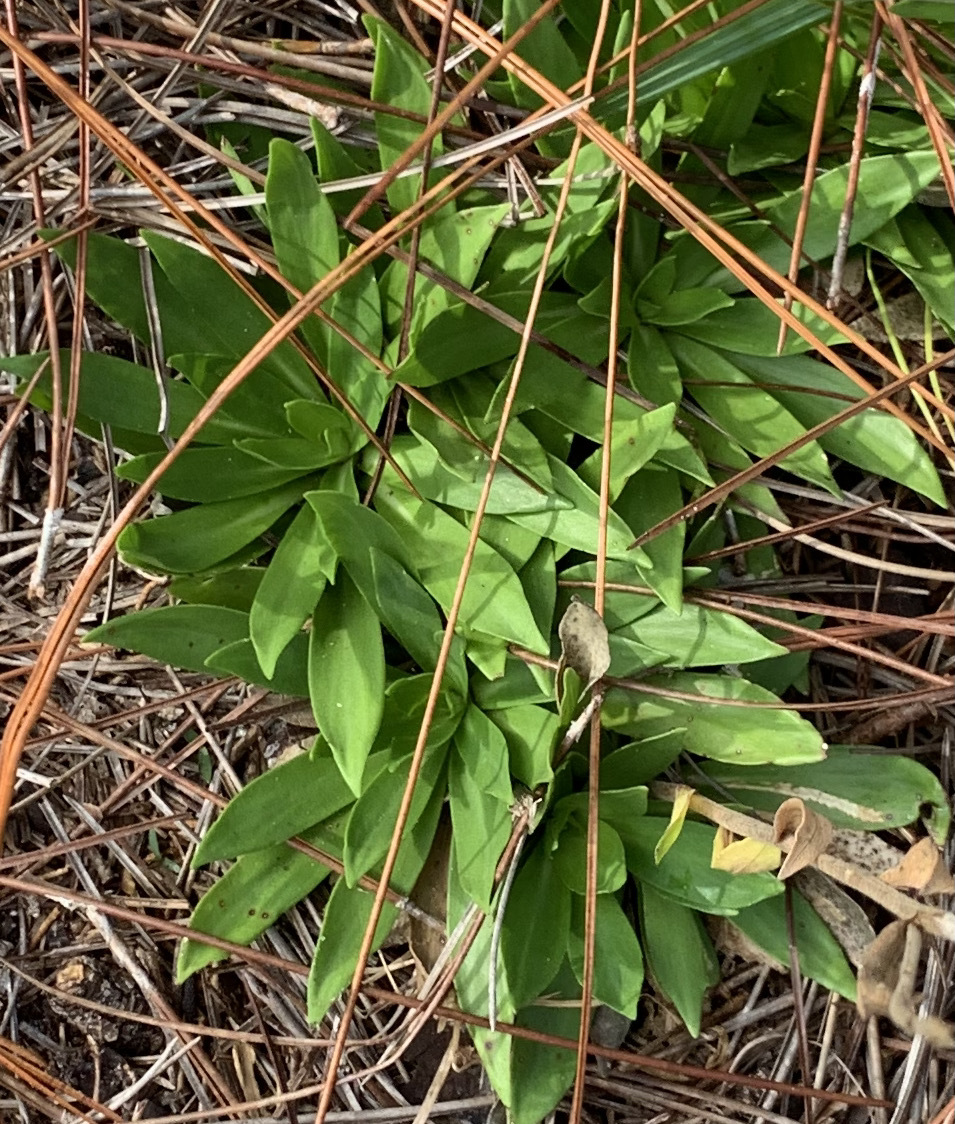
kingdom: Plantae
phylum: Tracheophyta
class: Magnoliopsida
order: Asterales
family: Asteraceae
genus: Carphephorus
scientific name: Carphephorus carnosus
